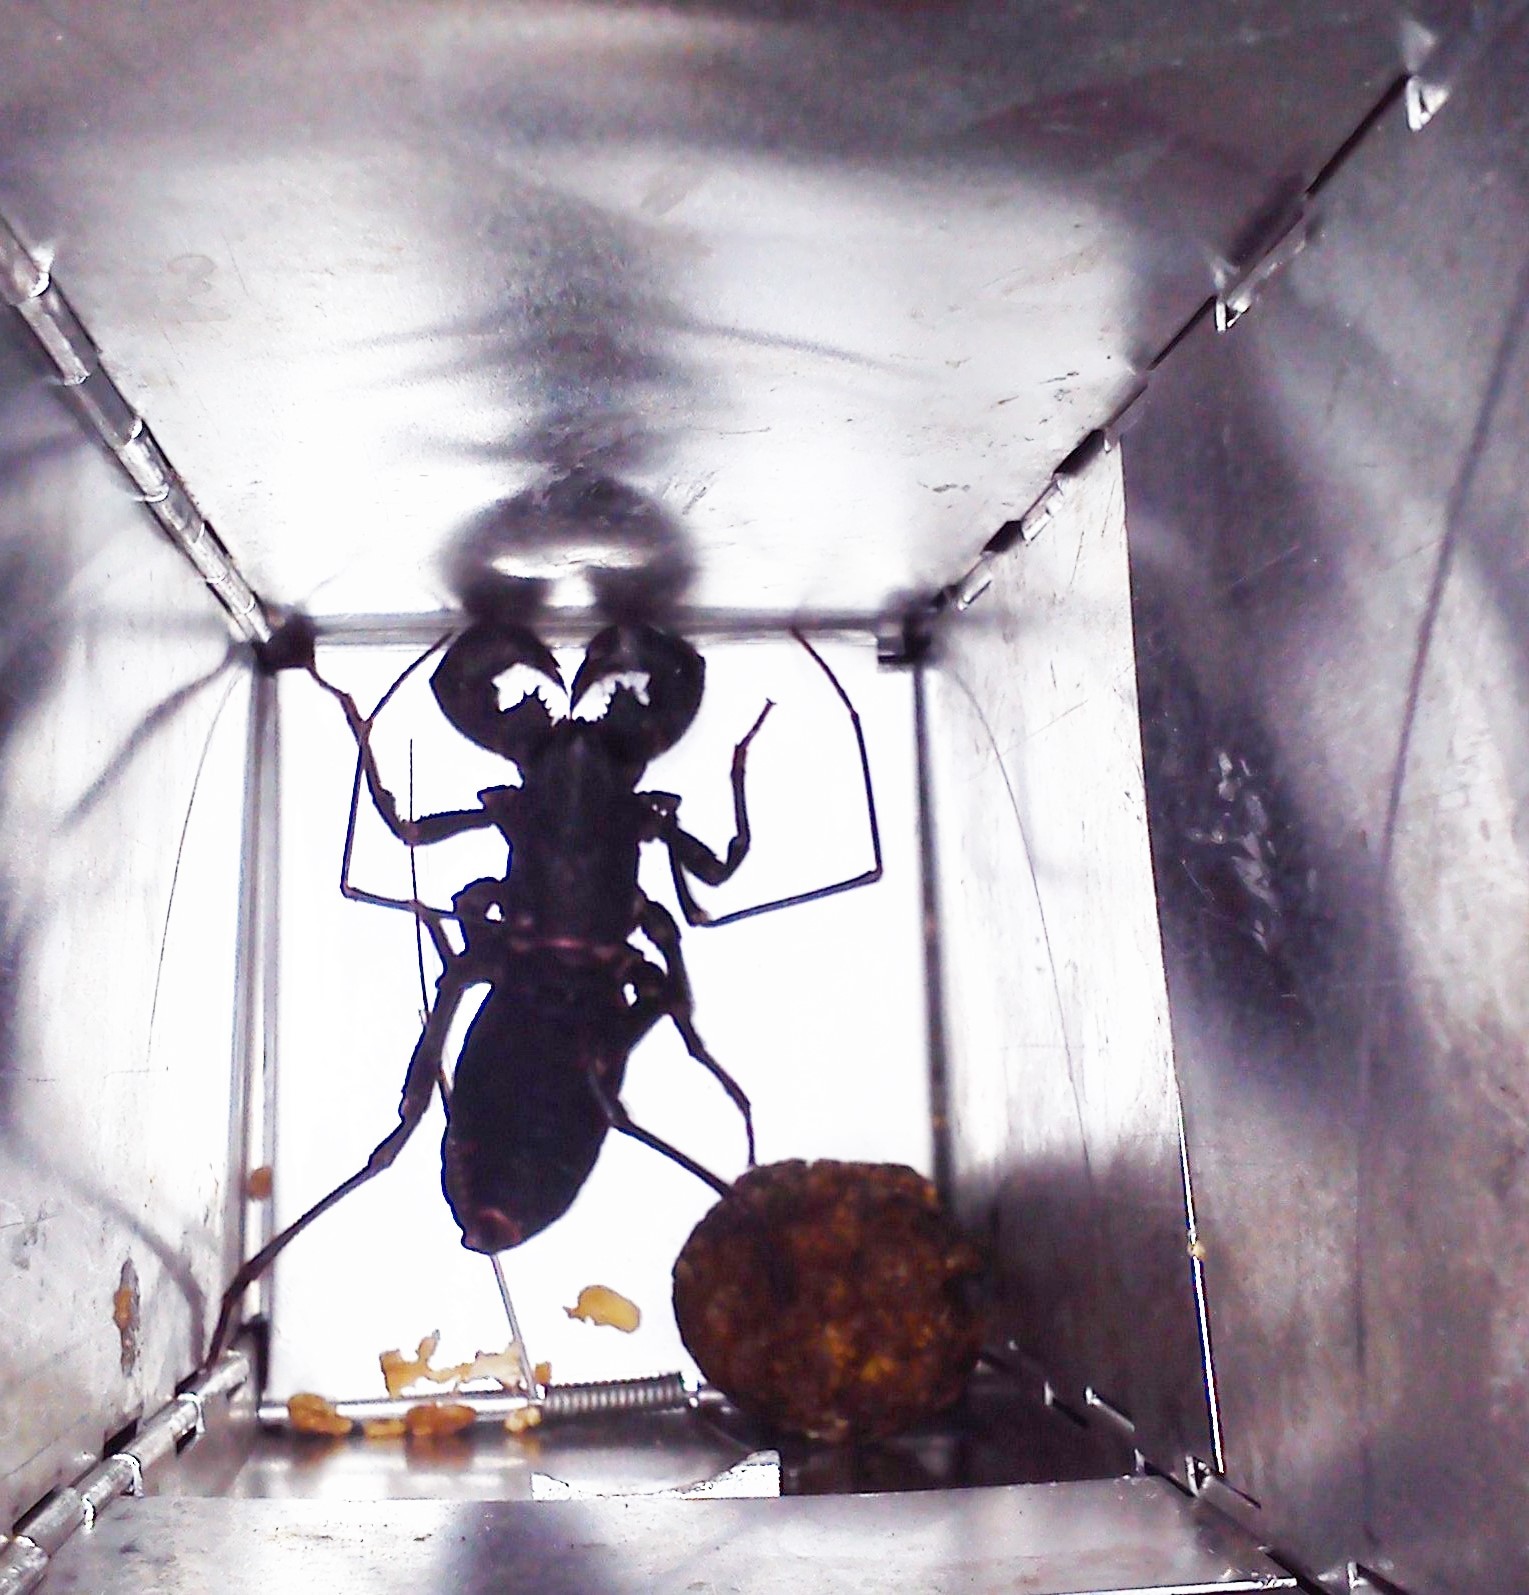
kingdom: Animalia
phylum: Arthropoda
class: Arachnida
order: Uropygi
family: Thelyphonidae
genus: Mastigoproctus
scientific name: Mastigoproctus
